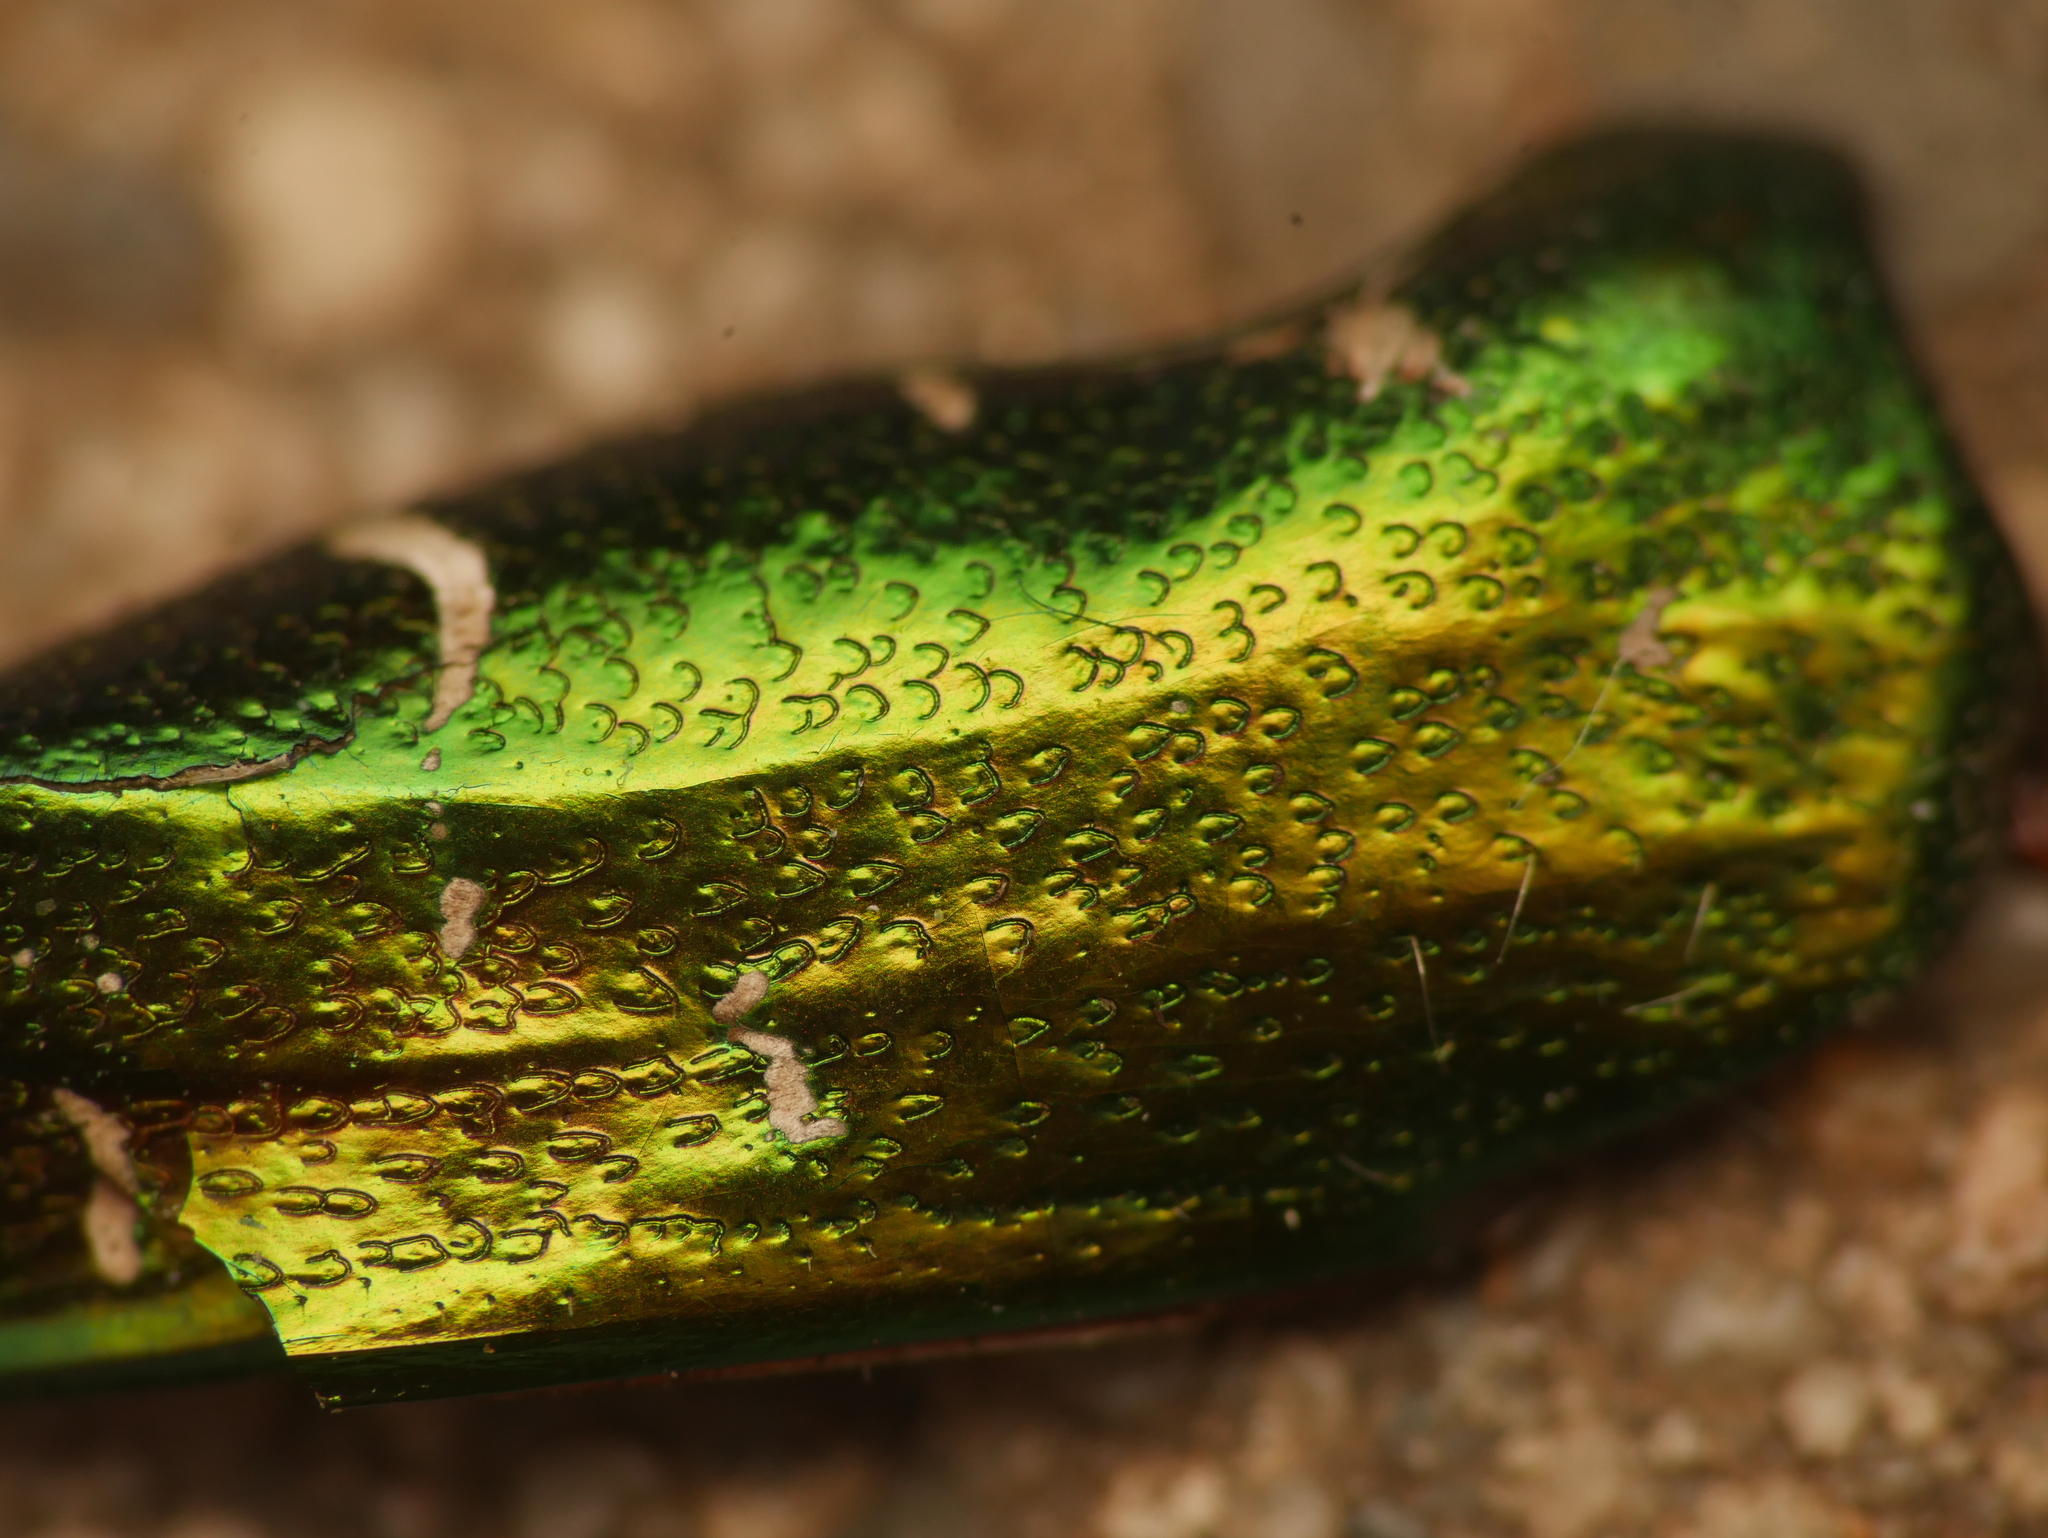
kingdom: Animalia
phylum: Arthropoda
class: Insecta
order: Coleoptera
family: Scarabaeidae
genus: Cetonia
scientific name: Cetonia aurata
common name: Rose chafer
